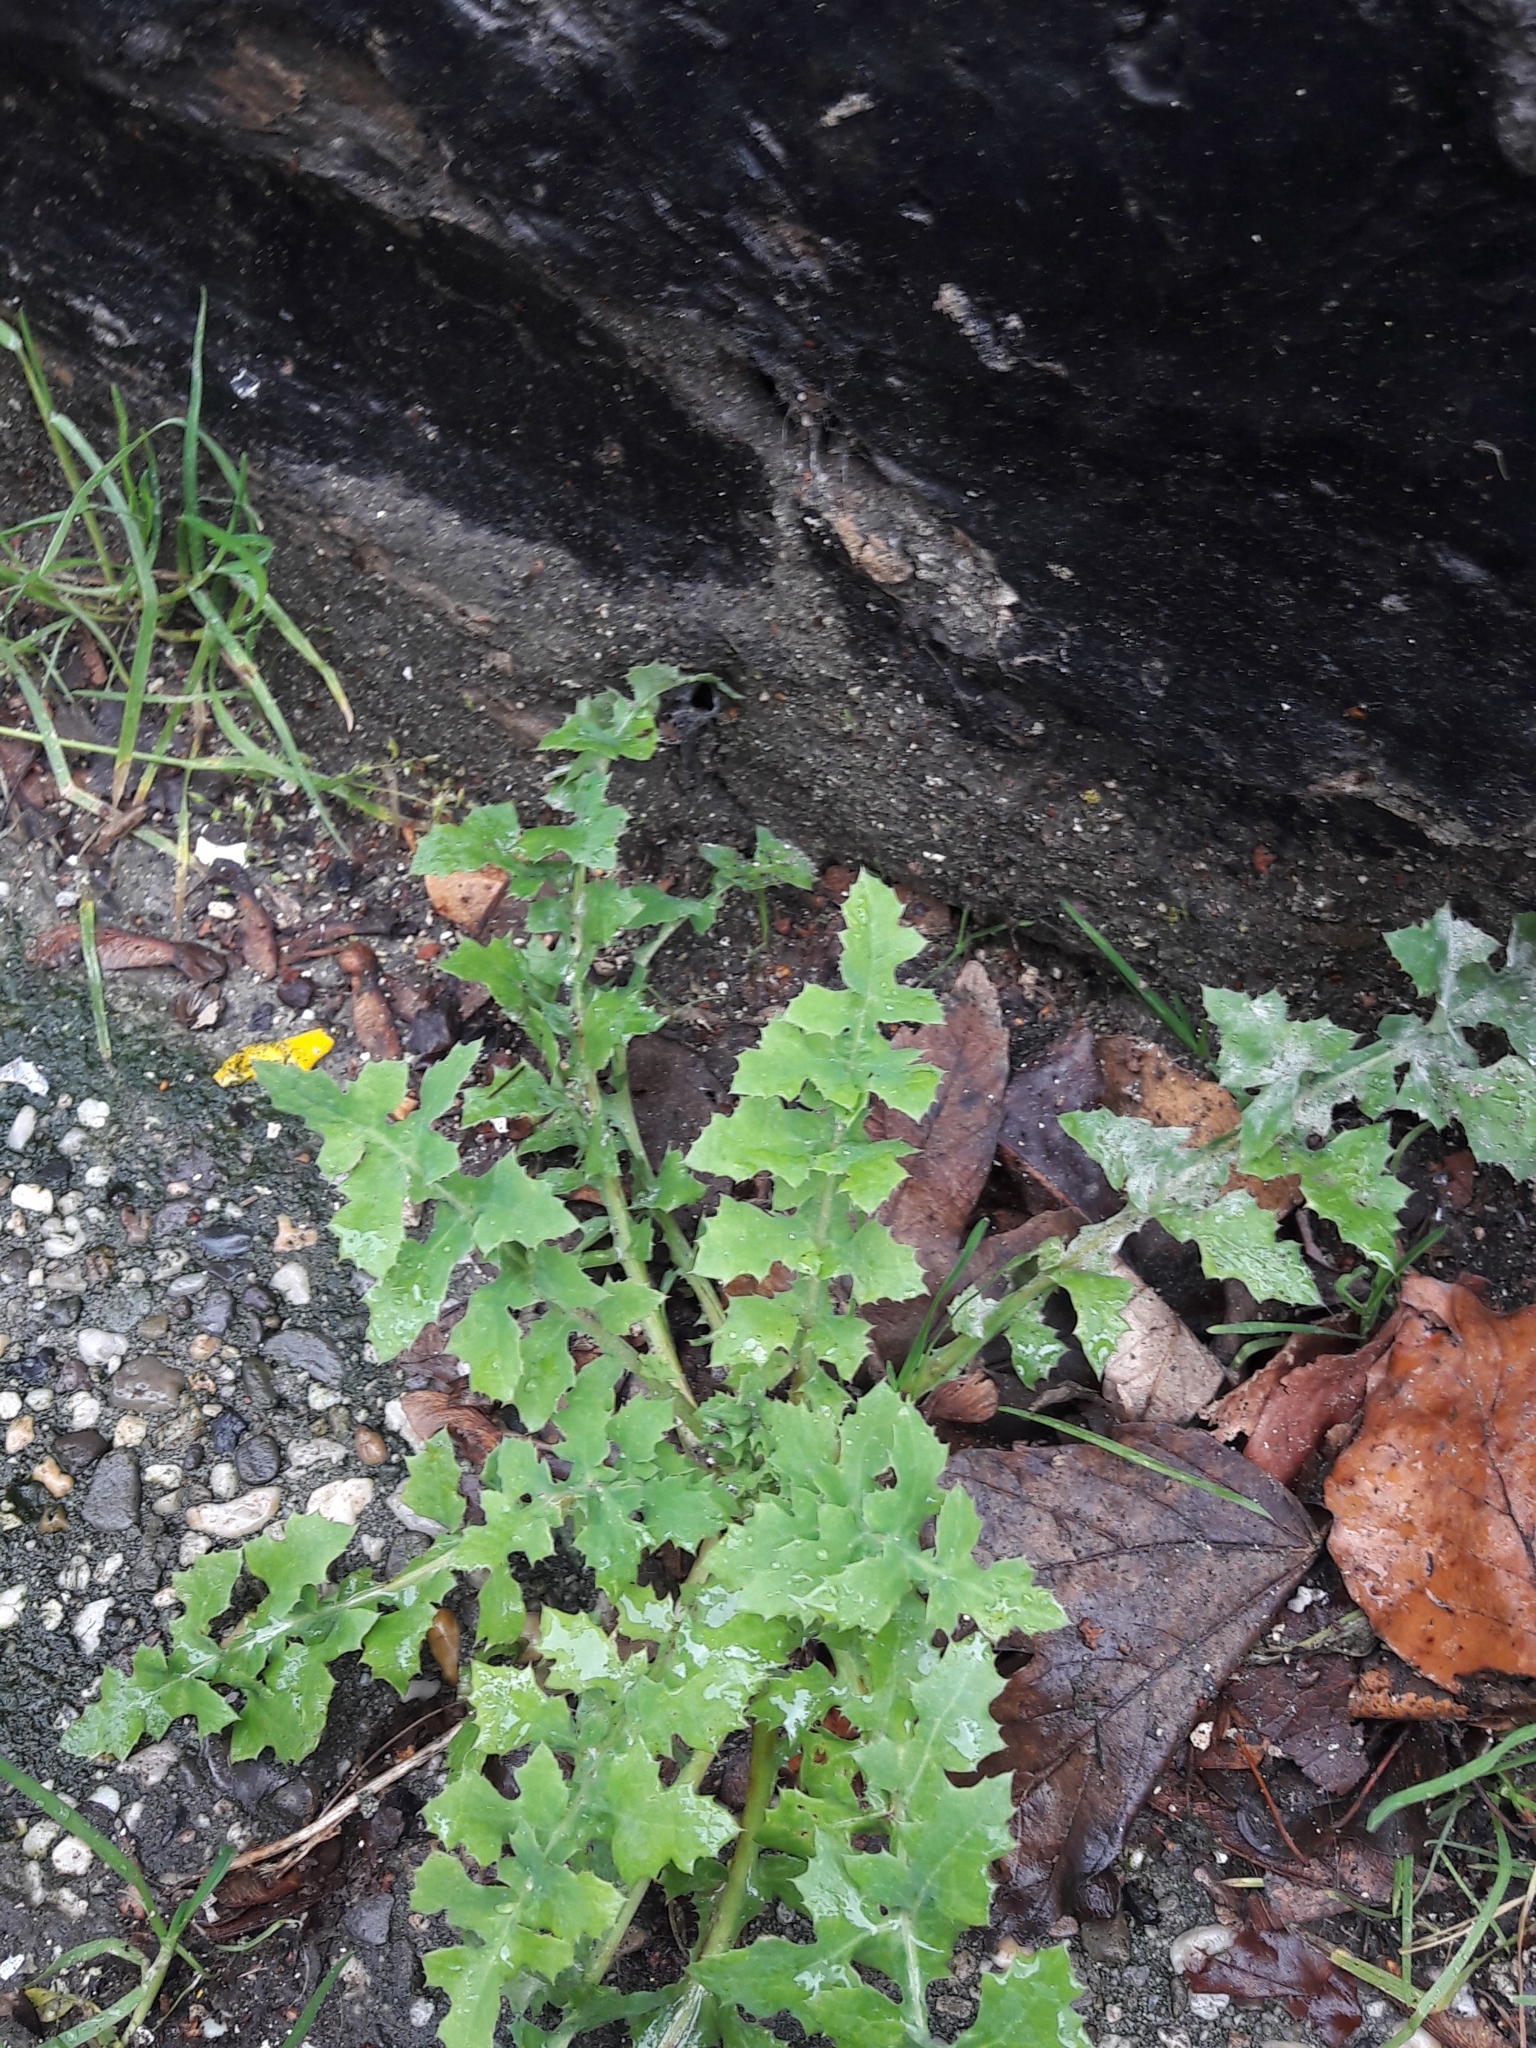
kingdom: Plantae
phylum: Tracheophyta
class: Magnoliopsida
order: Asterales
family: Asteraceae
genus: Sonchus
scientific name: Sonchus oleraceus
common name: Common sowthistle
